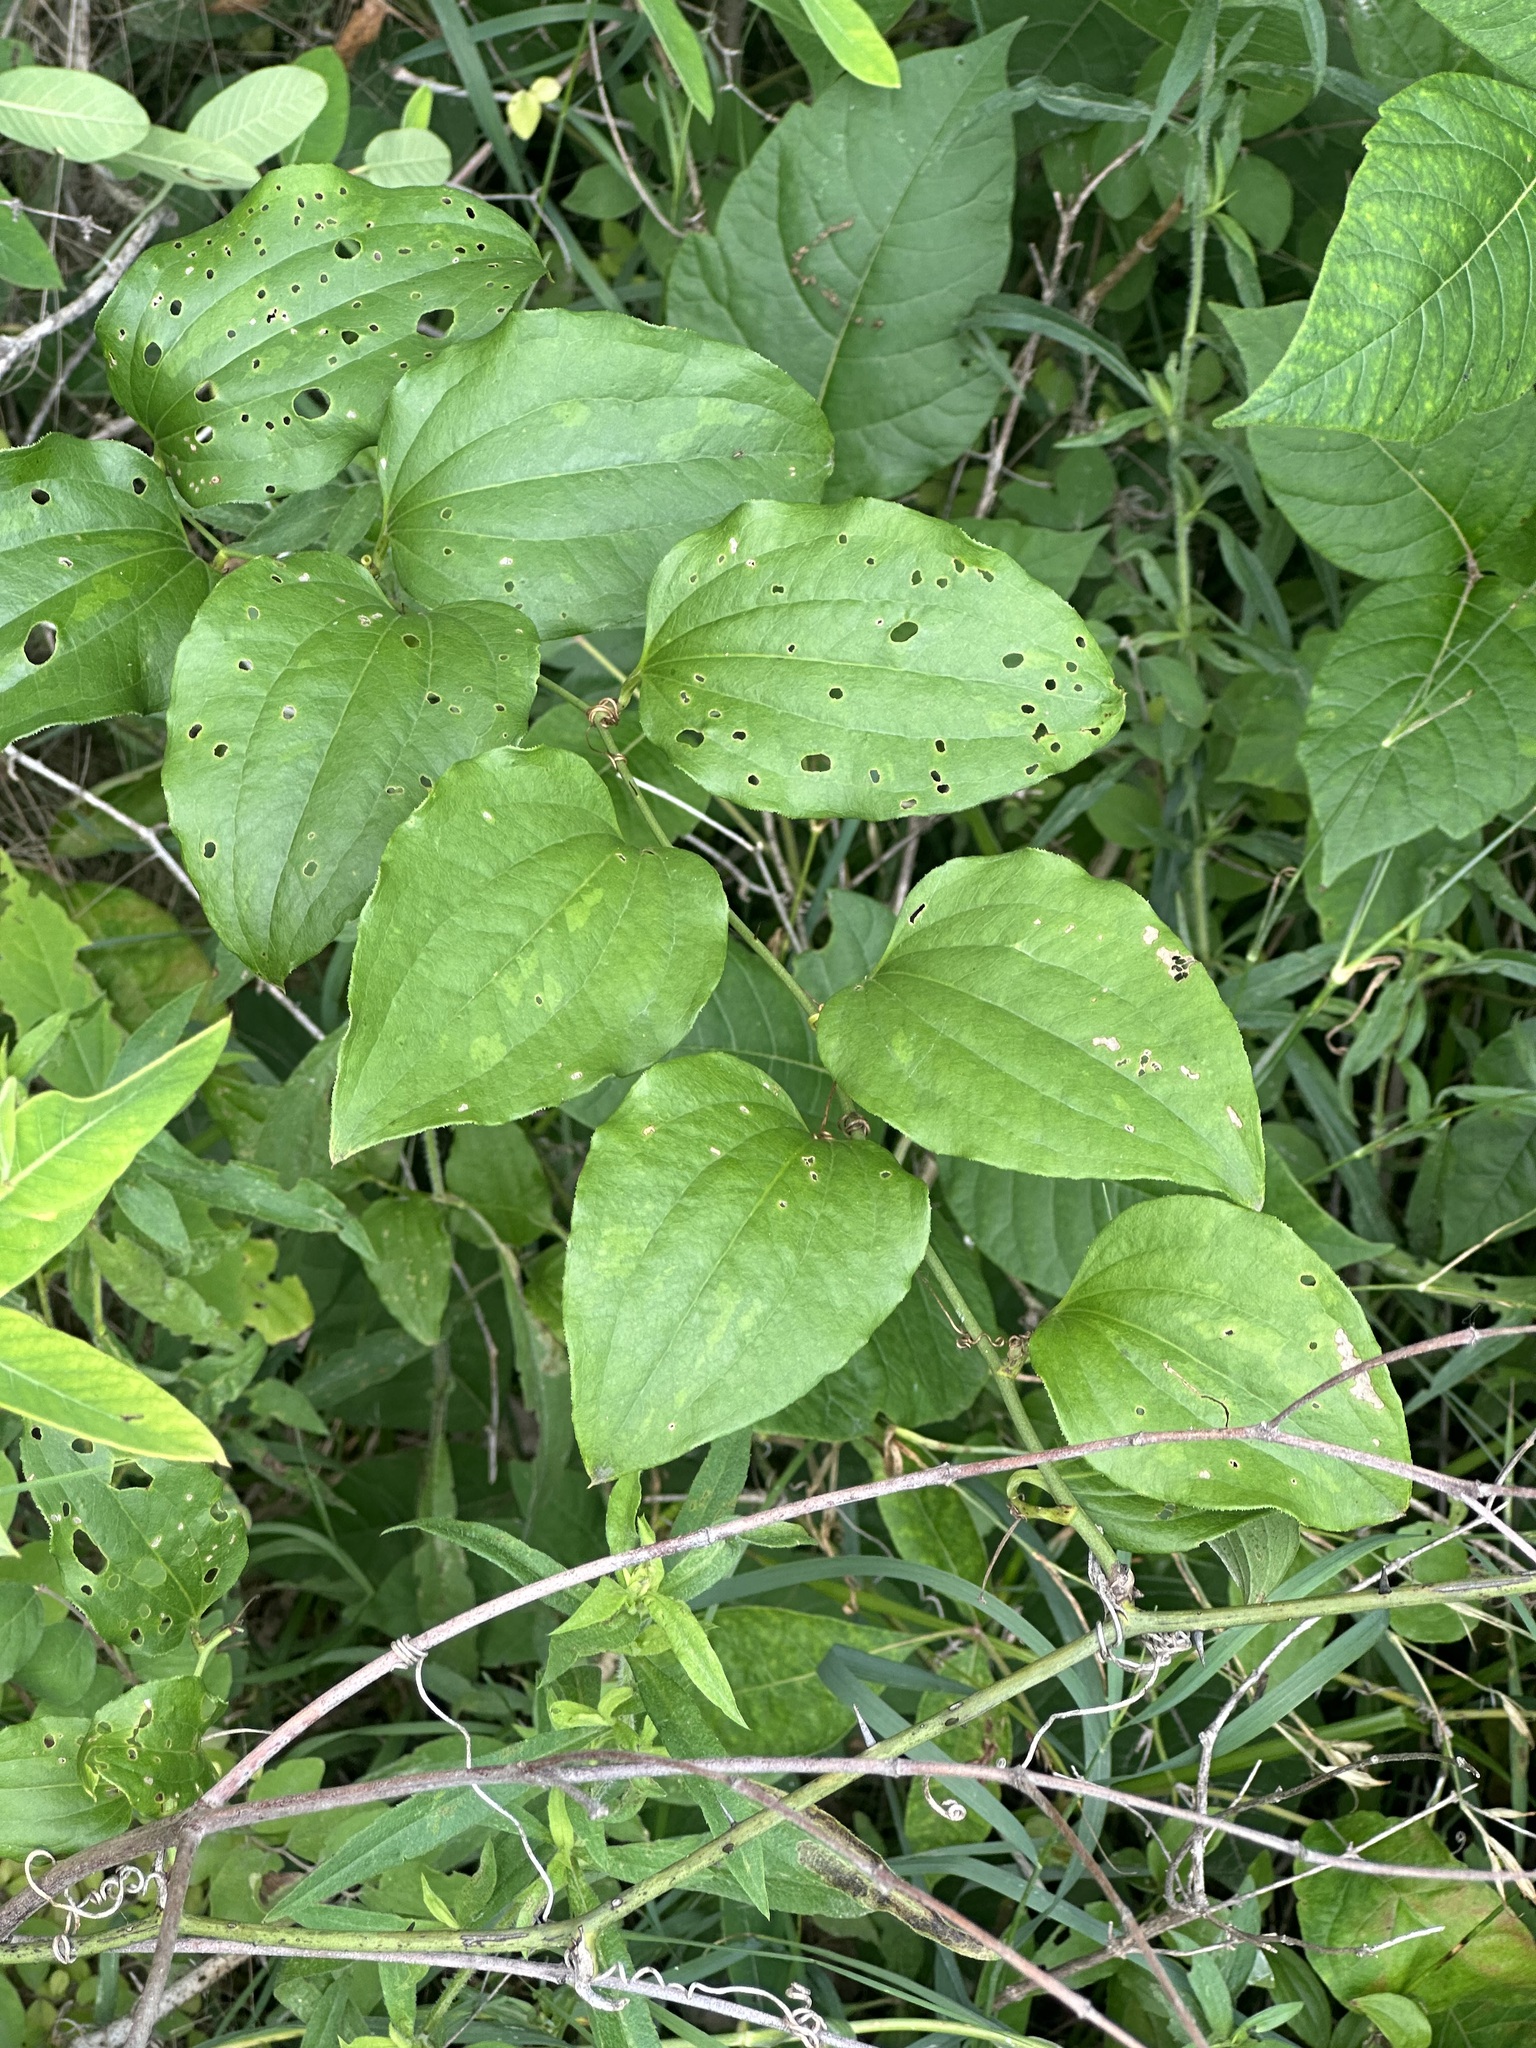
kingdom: Plantae
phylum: Tracheophyta
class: Liliopsida
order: Liliales
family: Smilacaceae
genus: Smilax
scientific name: Smilax tamnoides
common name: Hellfetter
